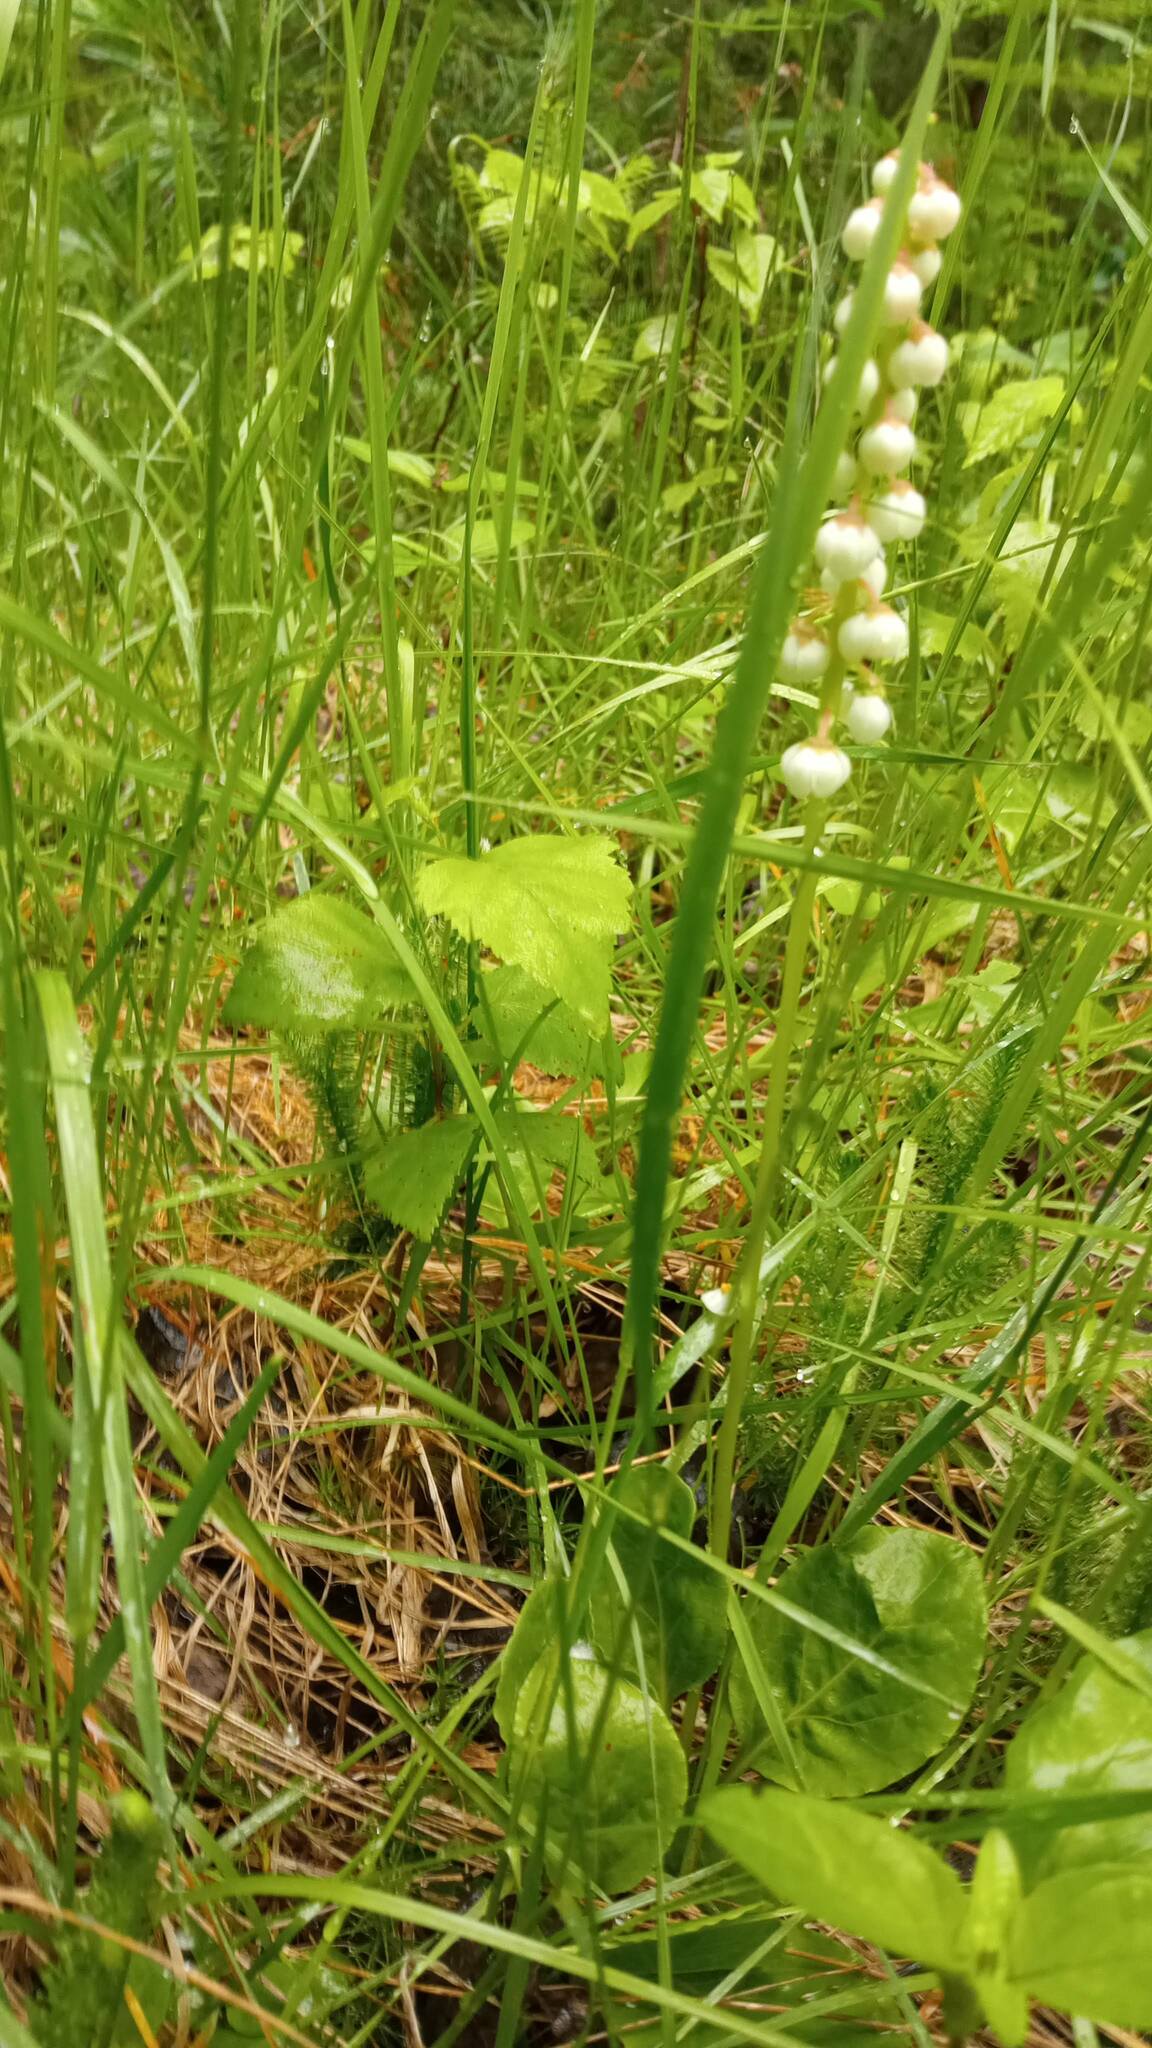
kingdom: Plantae
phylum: Tracheophyta
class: Magnoliopsida
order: Ericales
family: Ericaceae
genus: Pyrola
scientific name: Pyrola minor
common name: Common wintergreen
